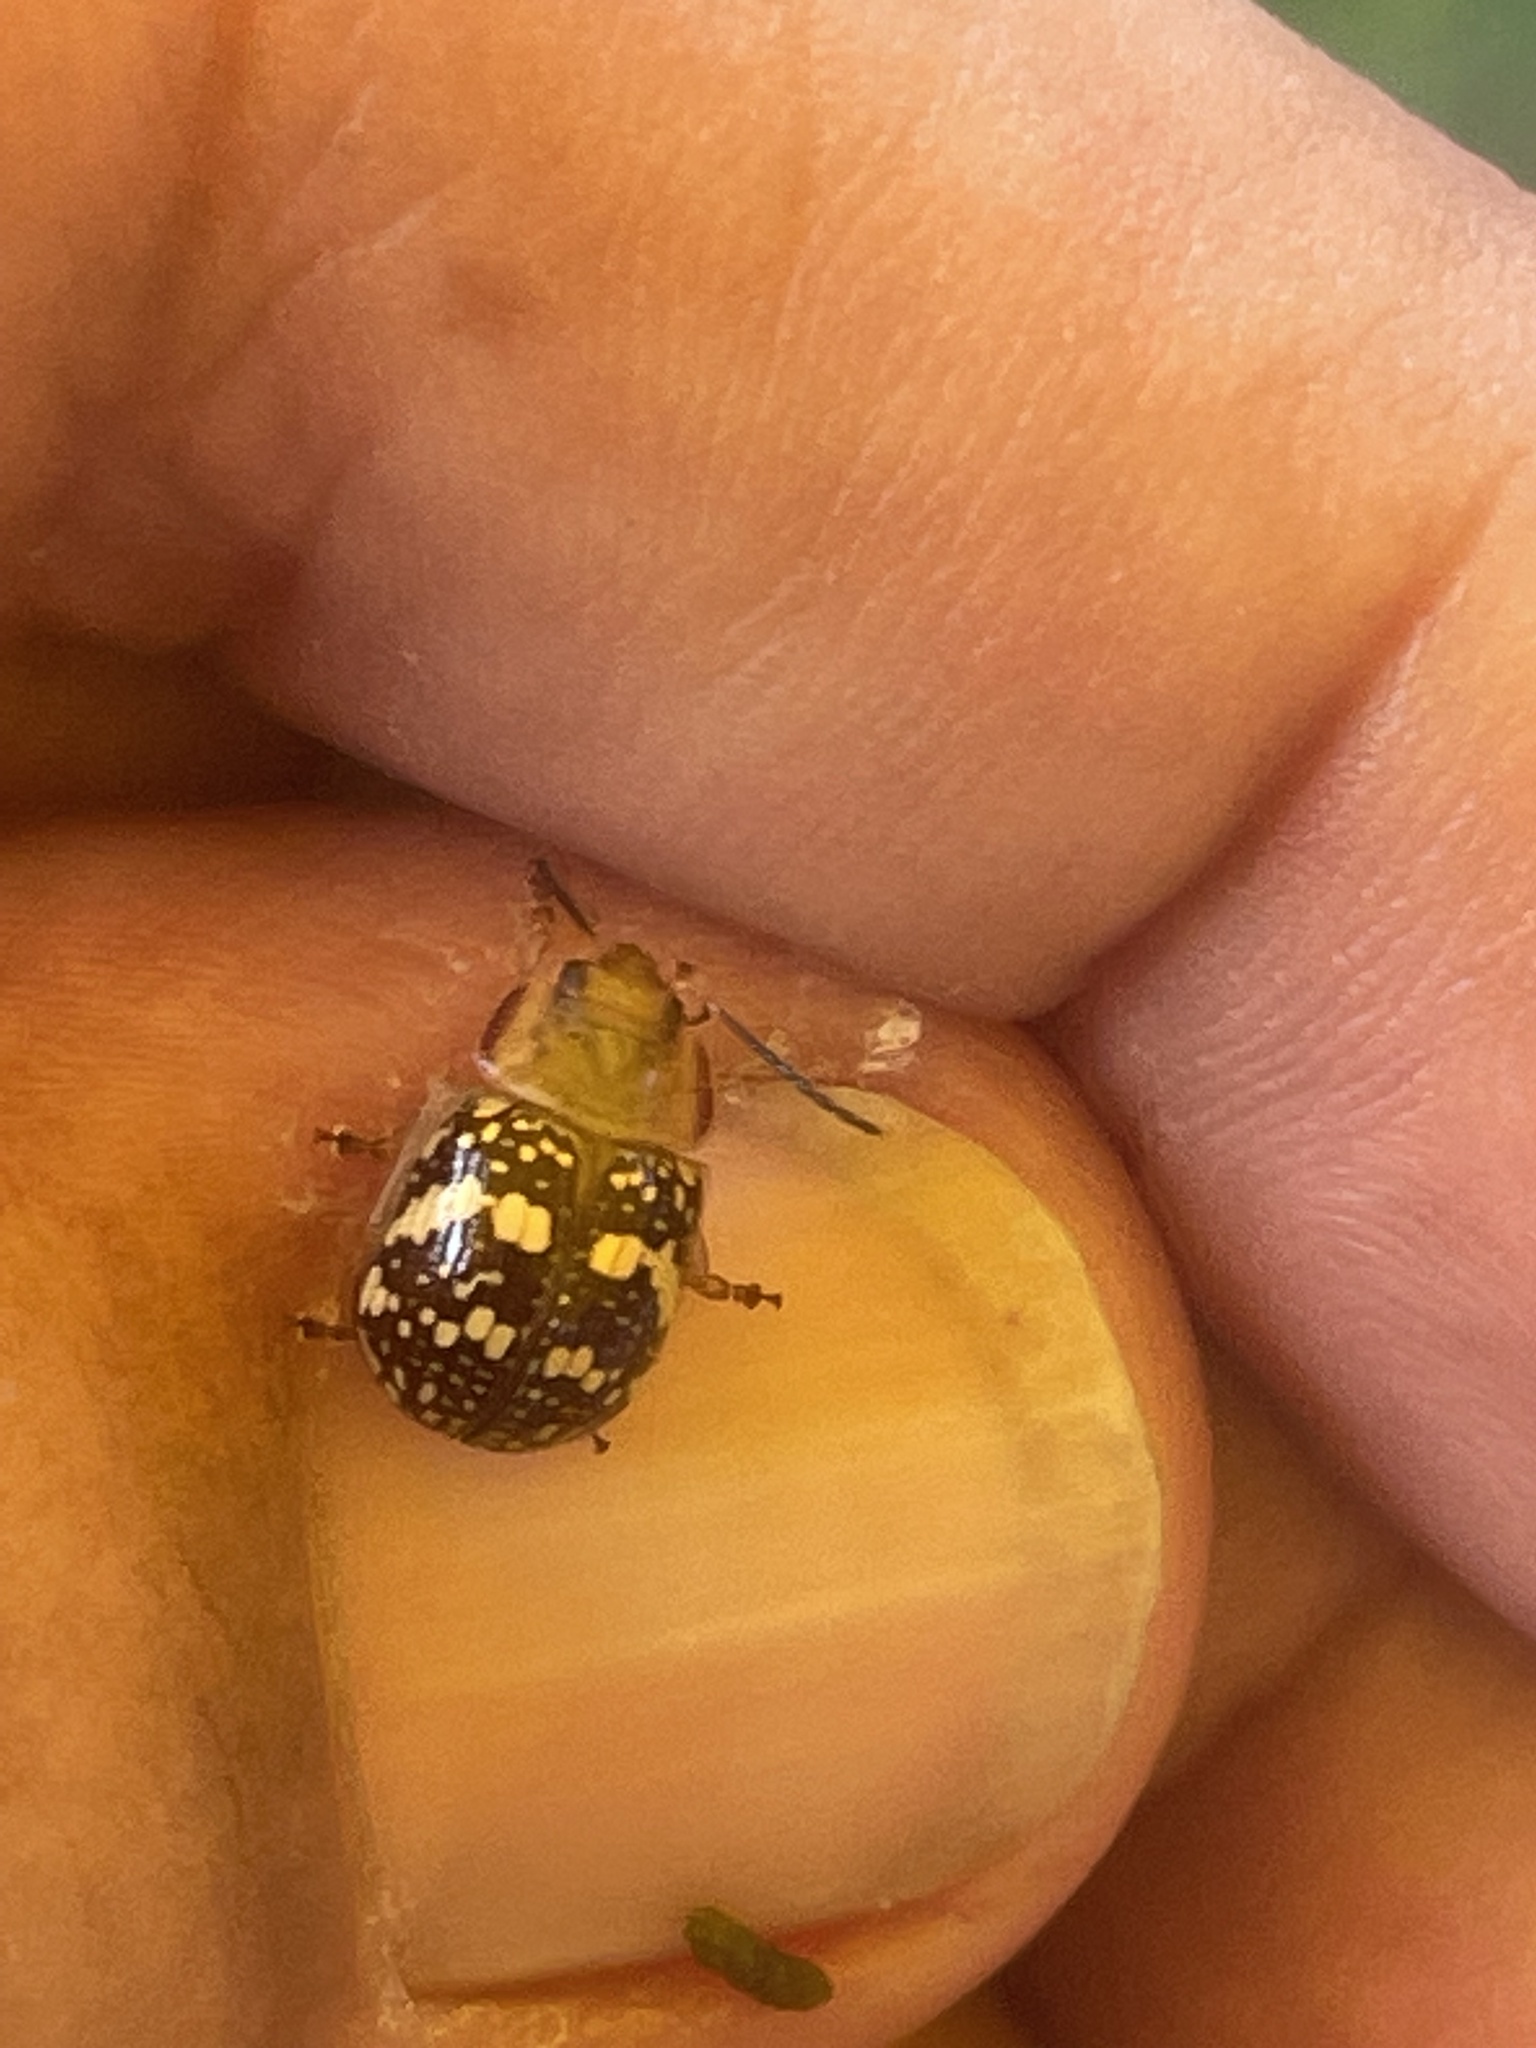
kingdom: Animalia
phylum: Arthropoda
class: Insecta
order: Coleoptera
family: Chrysomelidae
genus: Paropsis
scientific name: Paropsis
